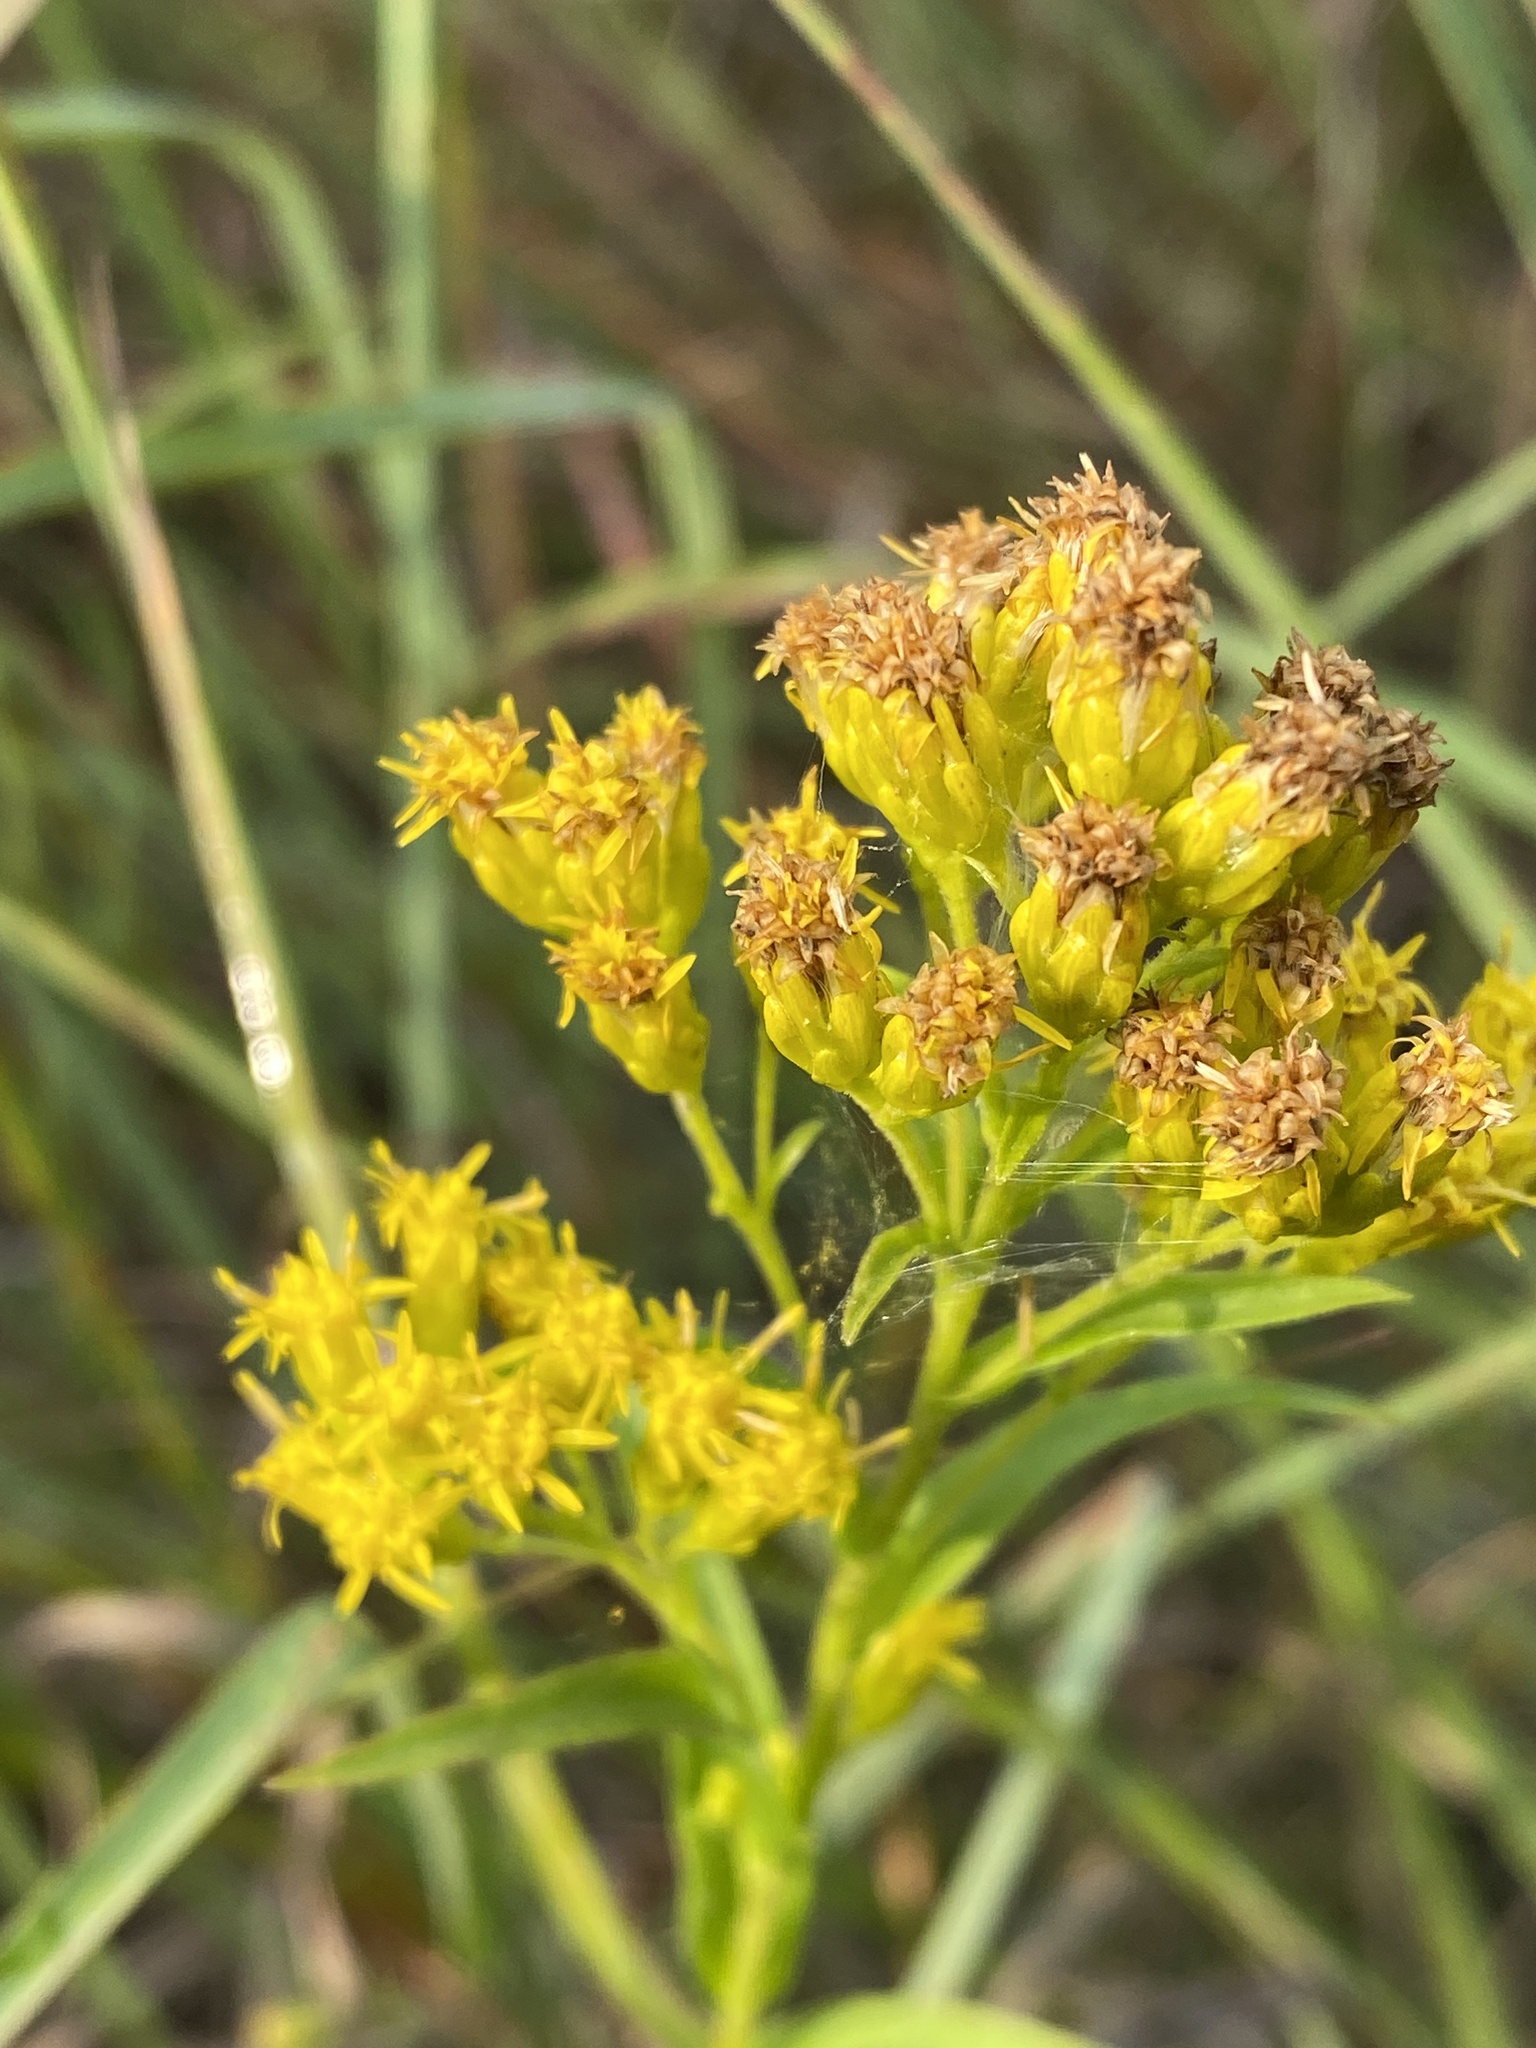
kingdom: Plantae
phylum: Tracheophyta
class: Magnoliopsida
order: Asterales
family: Asteraceae
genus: Solidago
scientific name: Solidago riddellii
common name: Riddell's goldenrod
